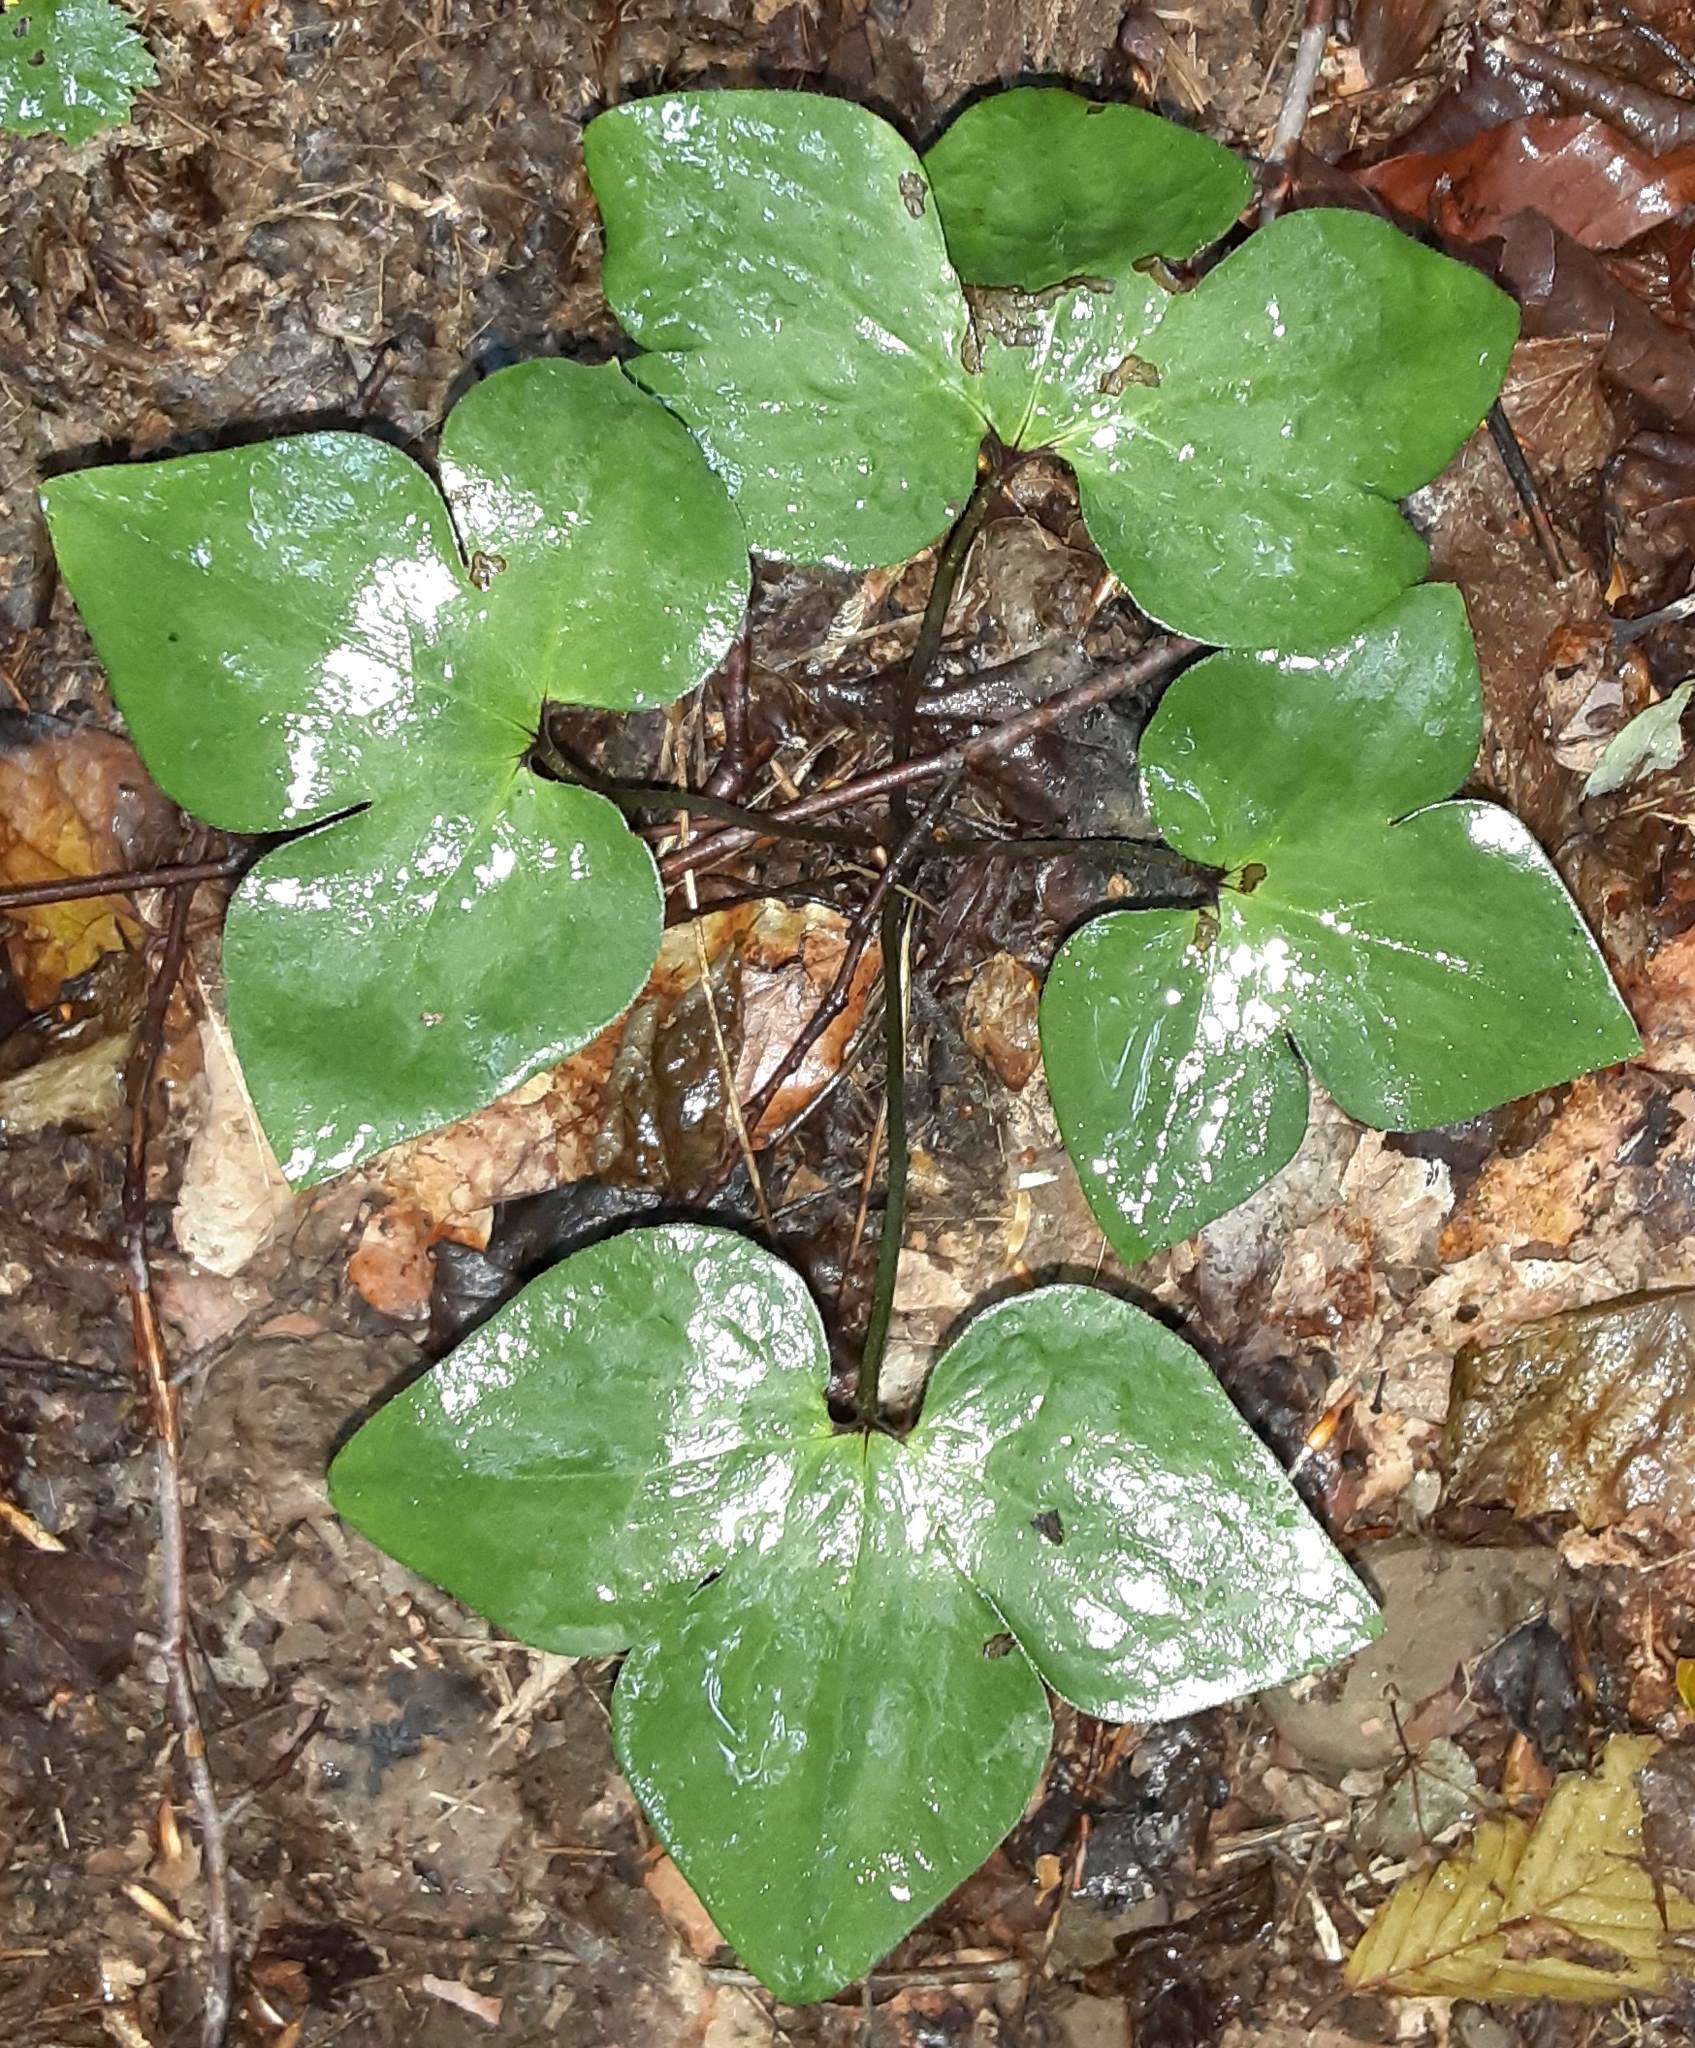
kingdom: Plantae
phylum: Tracheophyta
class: Magnoliopsida
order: Ranunculales
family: Ranunculaceae
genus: Hepatica
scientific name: Hepatica acutiloba
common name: Sharp-lobed hepatica
